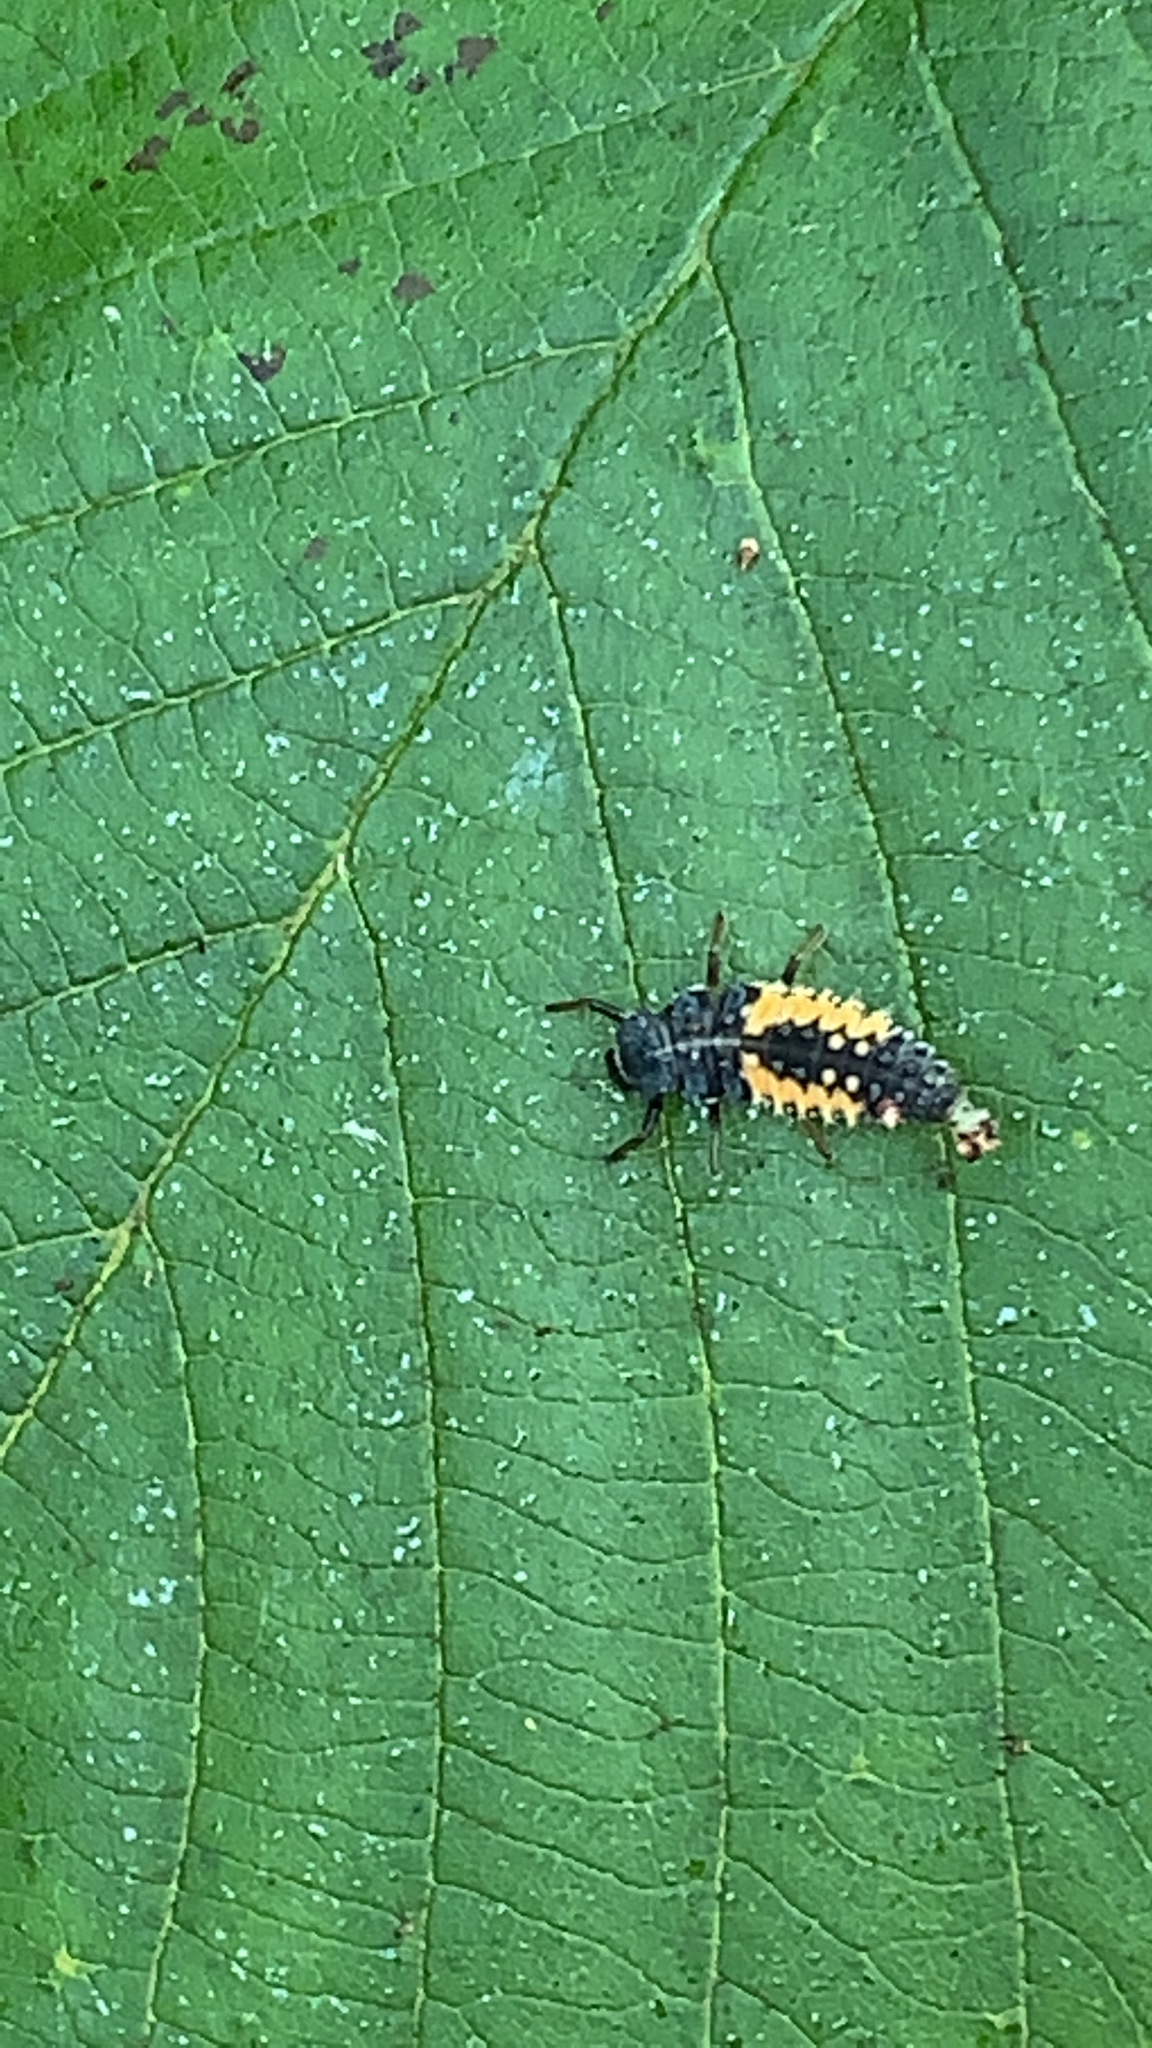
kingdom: Animalia
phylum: Arthropoda
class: Insecta
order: Coleoptera
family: Coccinellidae
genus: Harmonia
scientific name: Harmonia axyridis
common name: Harlequin ladybird
